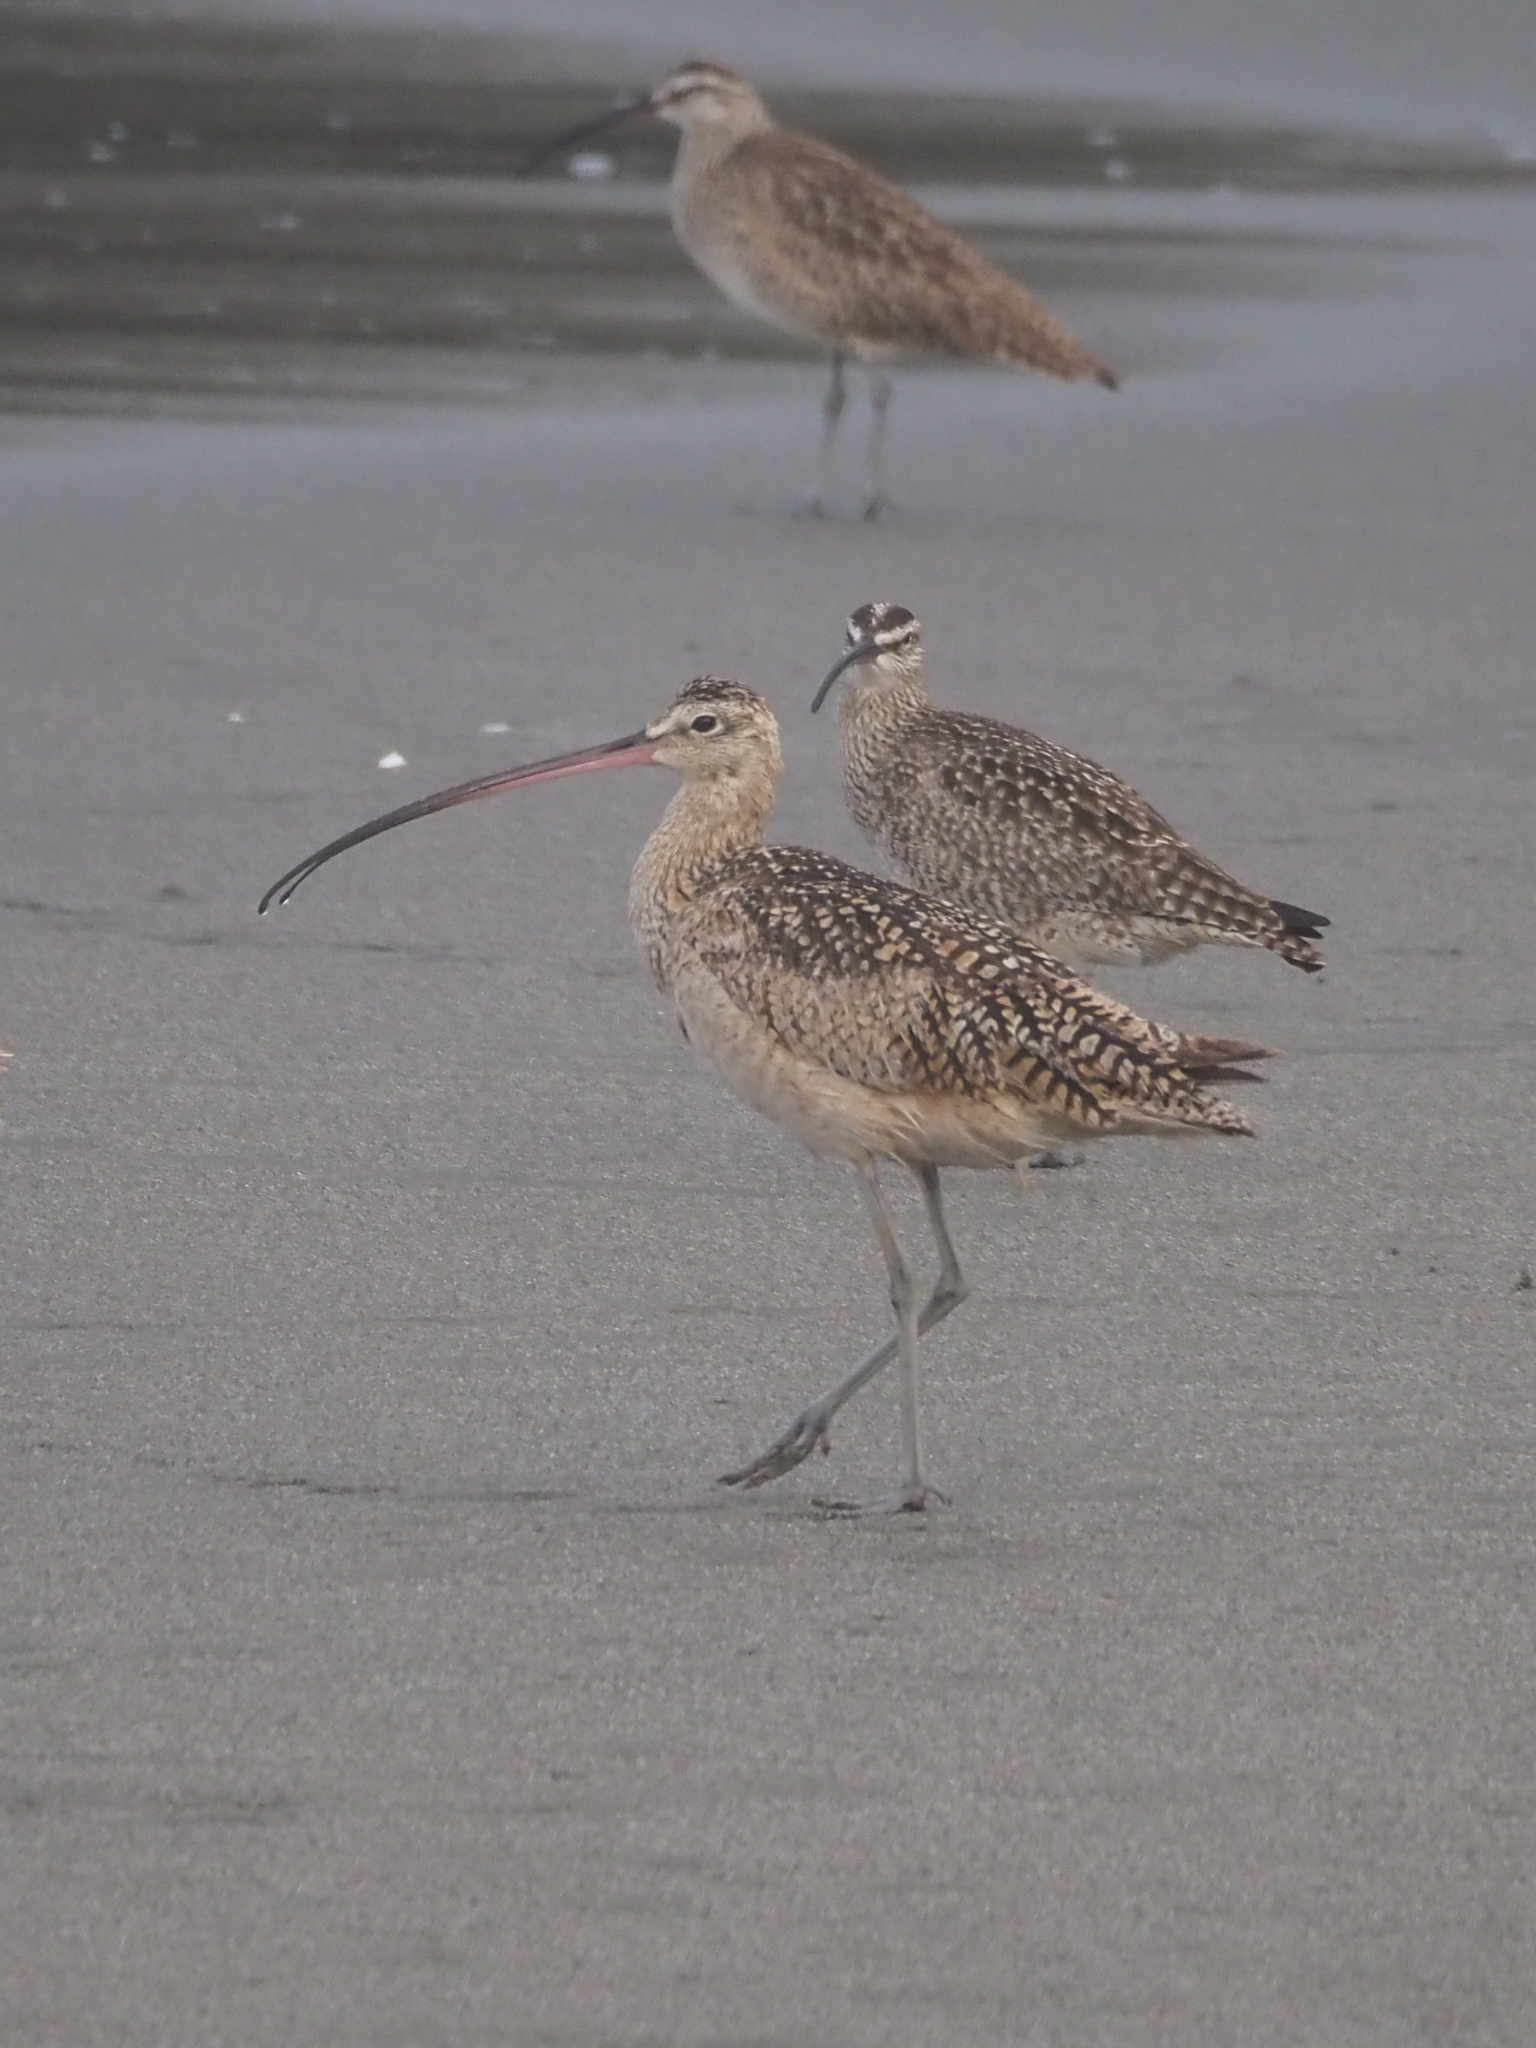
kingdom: Animalia
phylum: Chordata
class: Aves
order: Charadriiformes
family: Scolopacidae
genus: Numenius
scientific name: Numenius americanus
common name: Long-billed curlew
